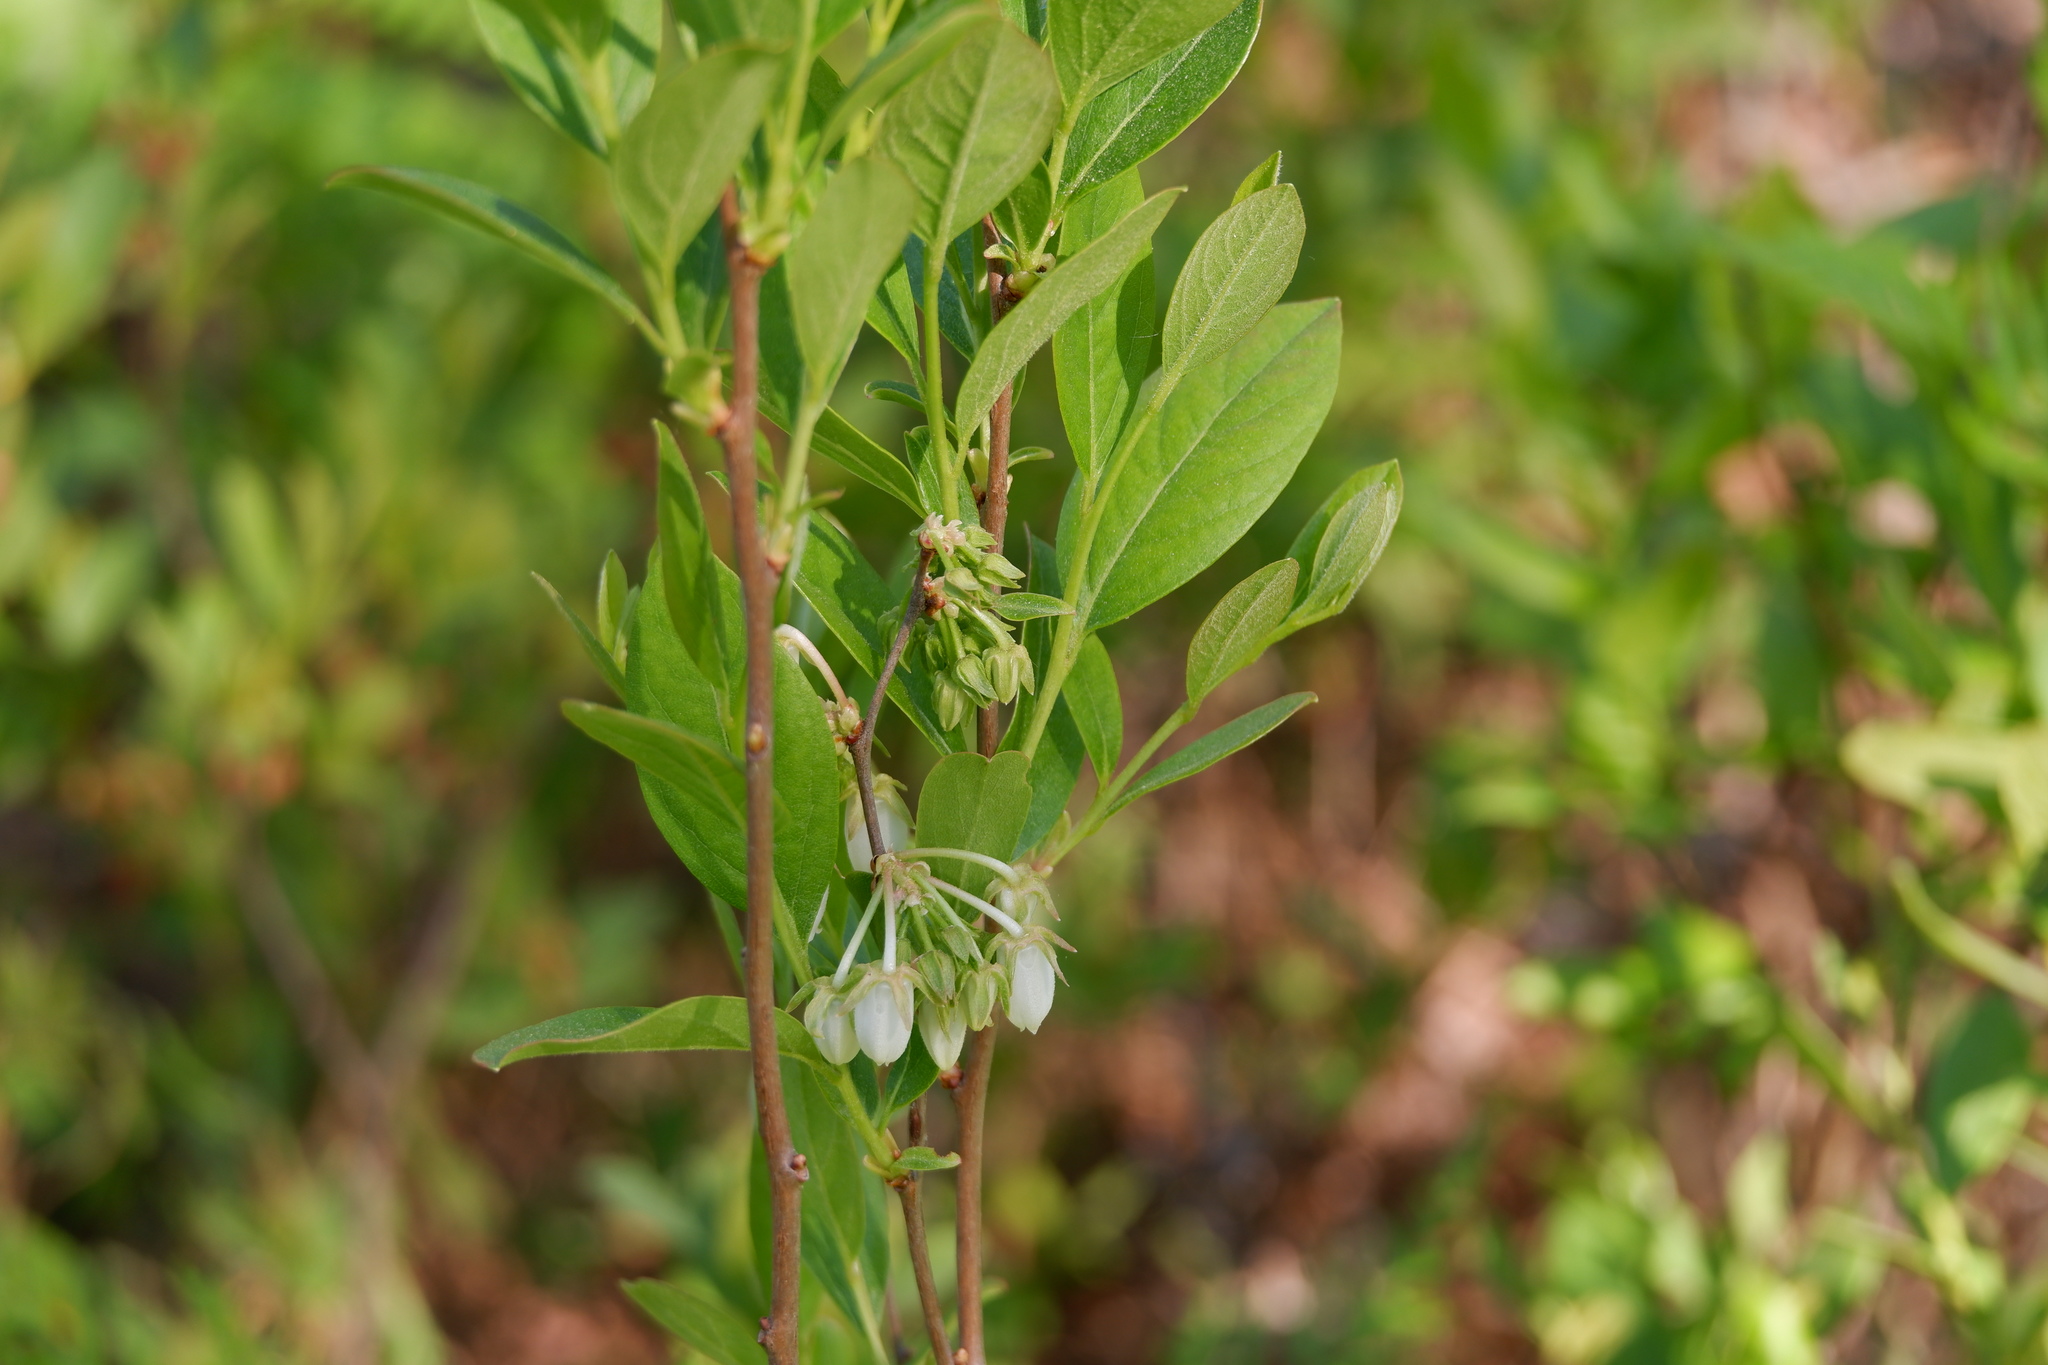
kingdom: Plantae
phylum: Tracheophyta
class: Magnoliopsida
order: Ericales
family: Ericaceae
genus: Lyonia
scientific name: Lyonia mariana
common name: Staggerbush
